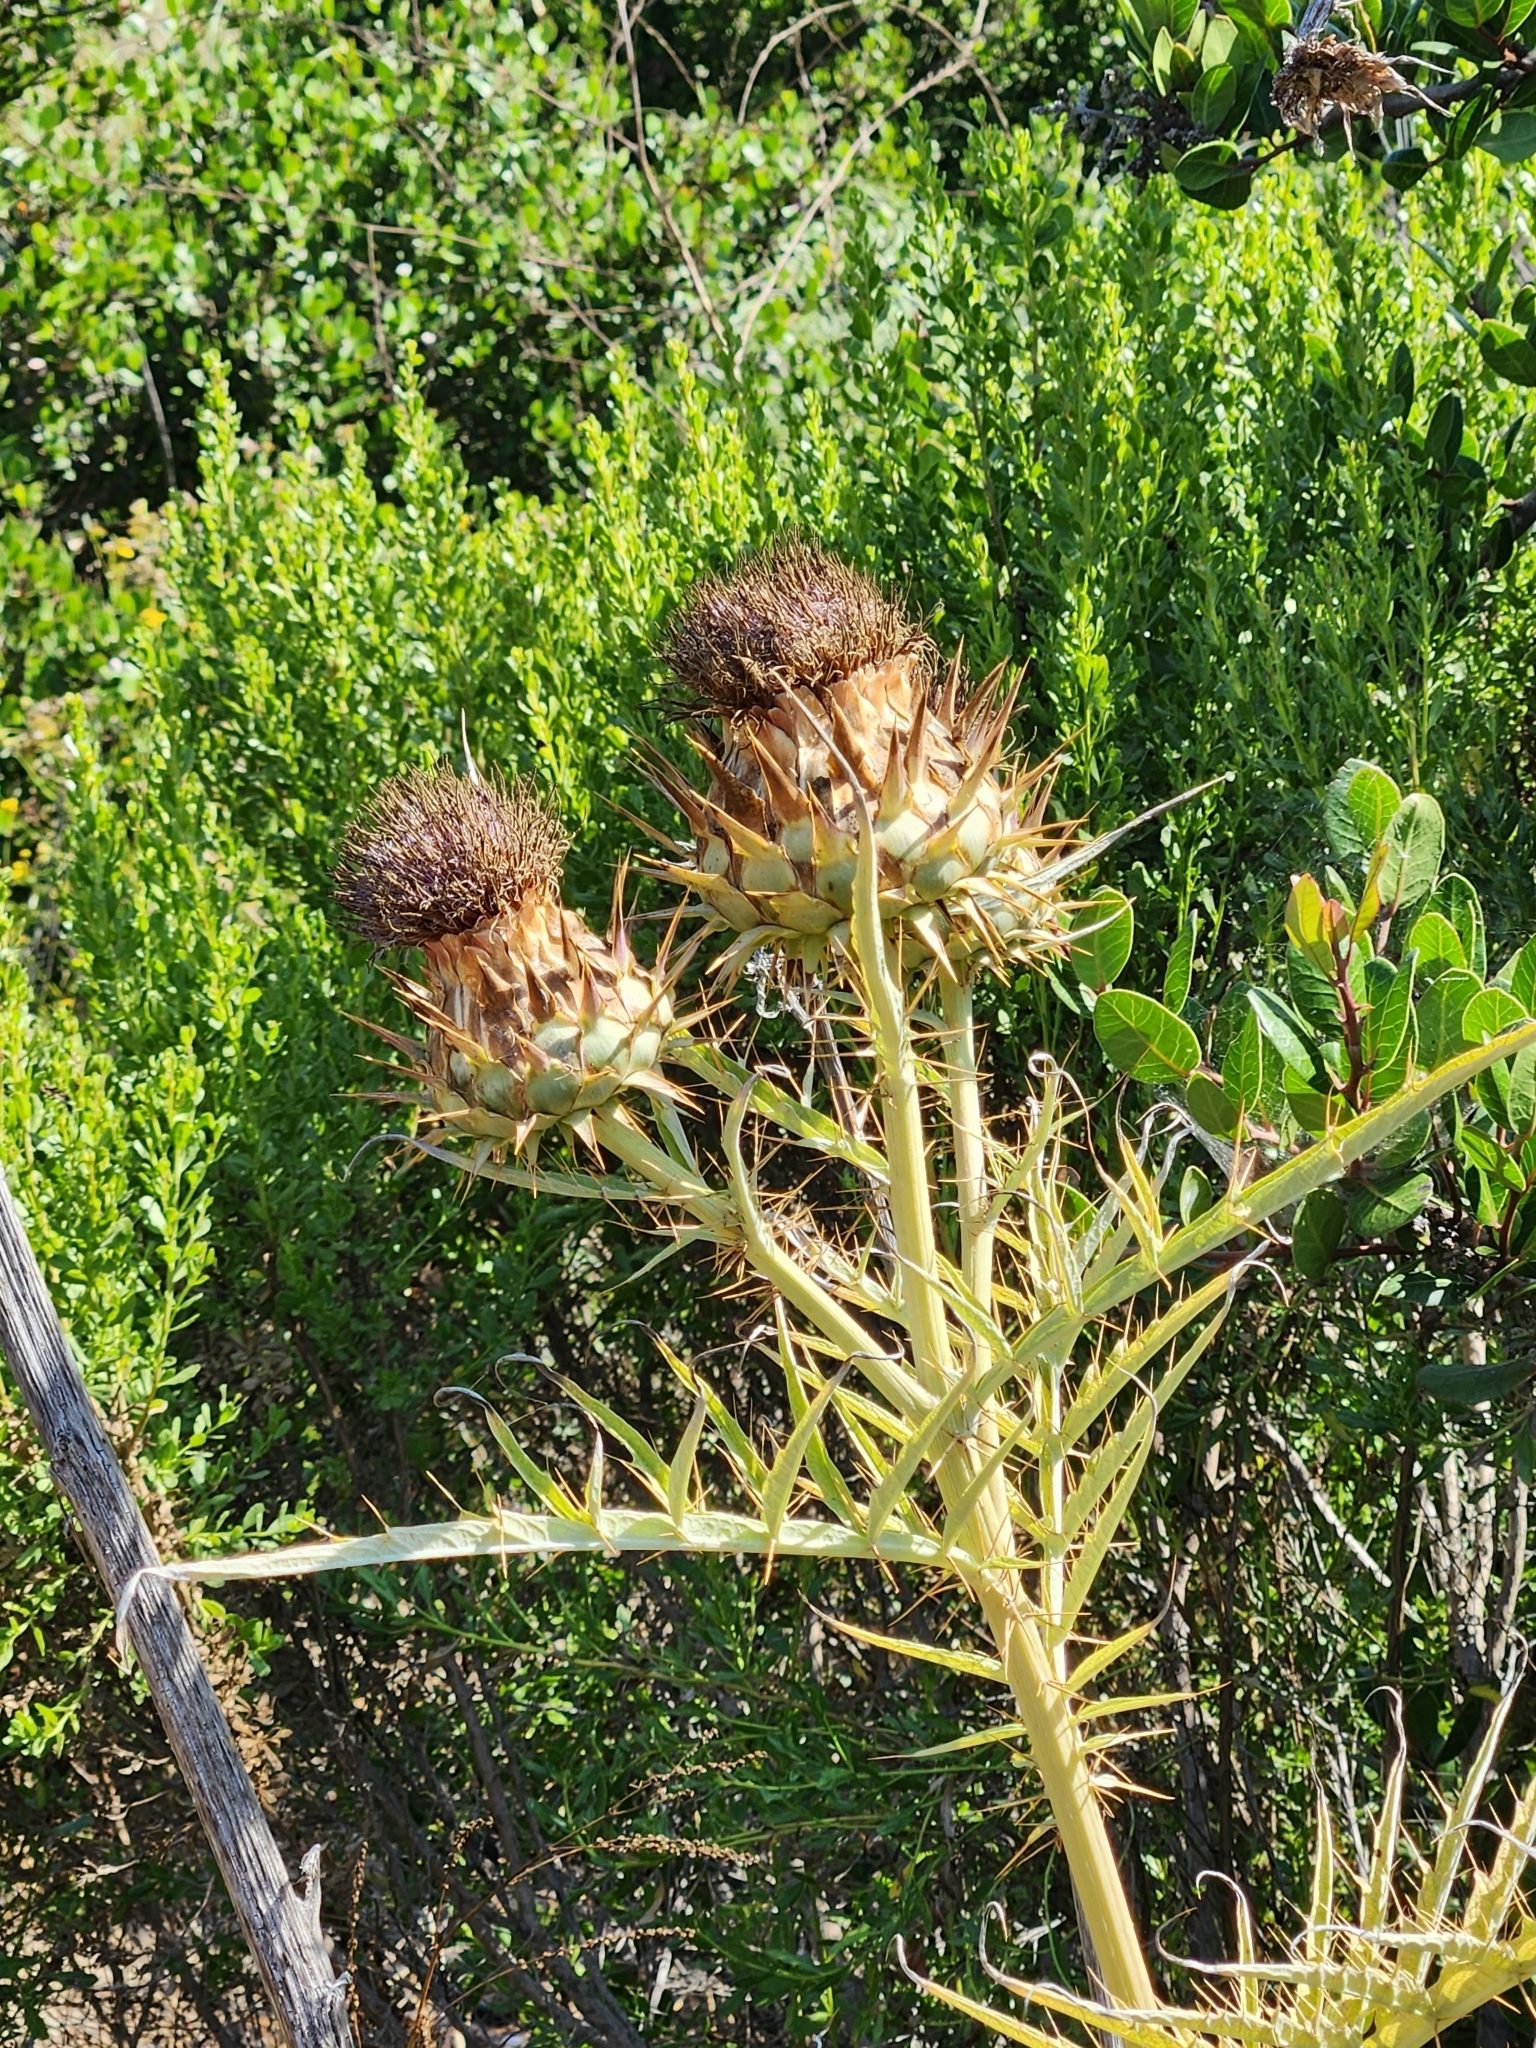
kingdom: Plantae
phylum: Tracheophyta
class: Magnoliopsida
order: Asterales
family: Asteraceae
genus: Cynara
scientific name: Cynara cardunculus
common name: Globe artichoke
